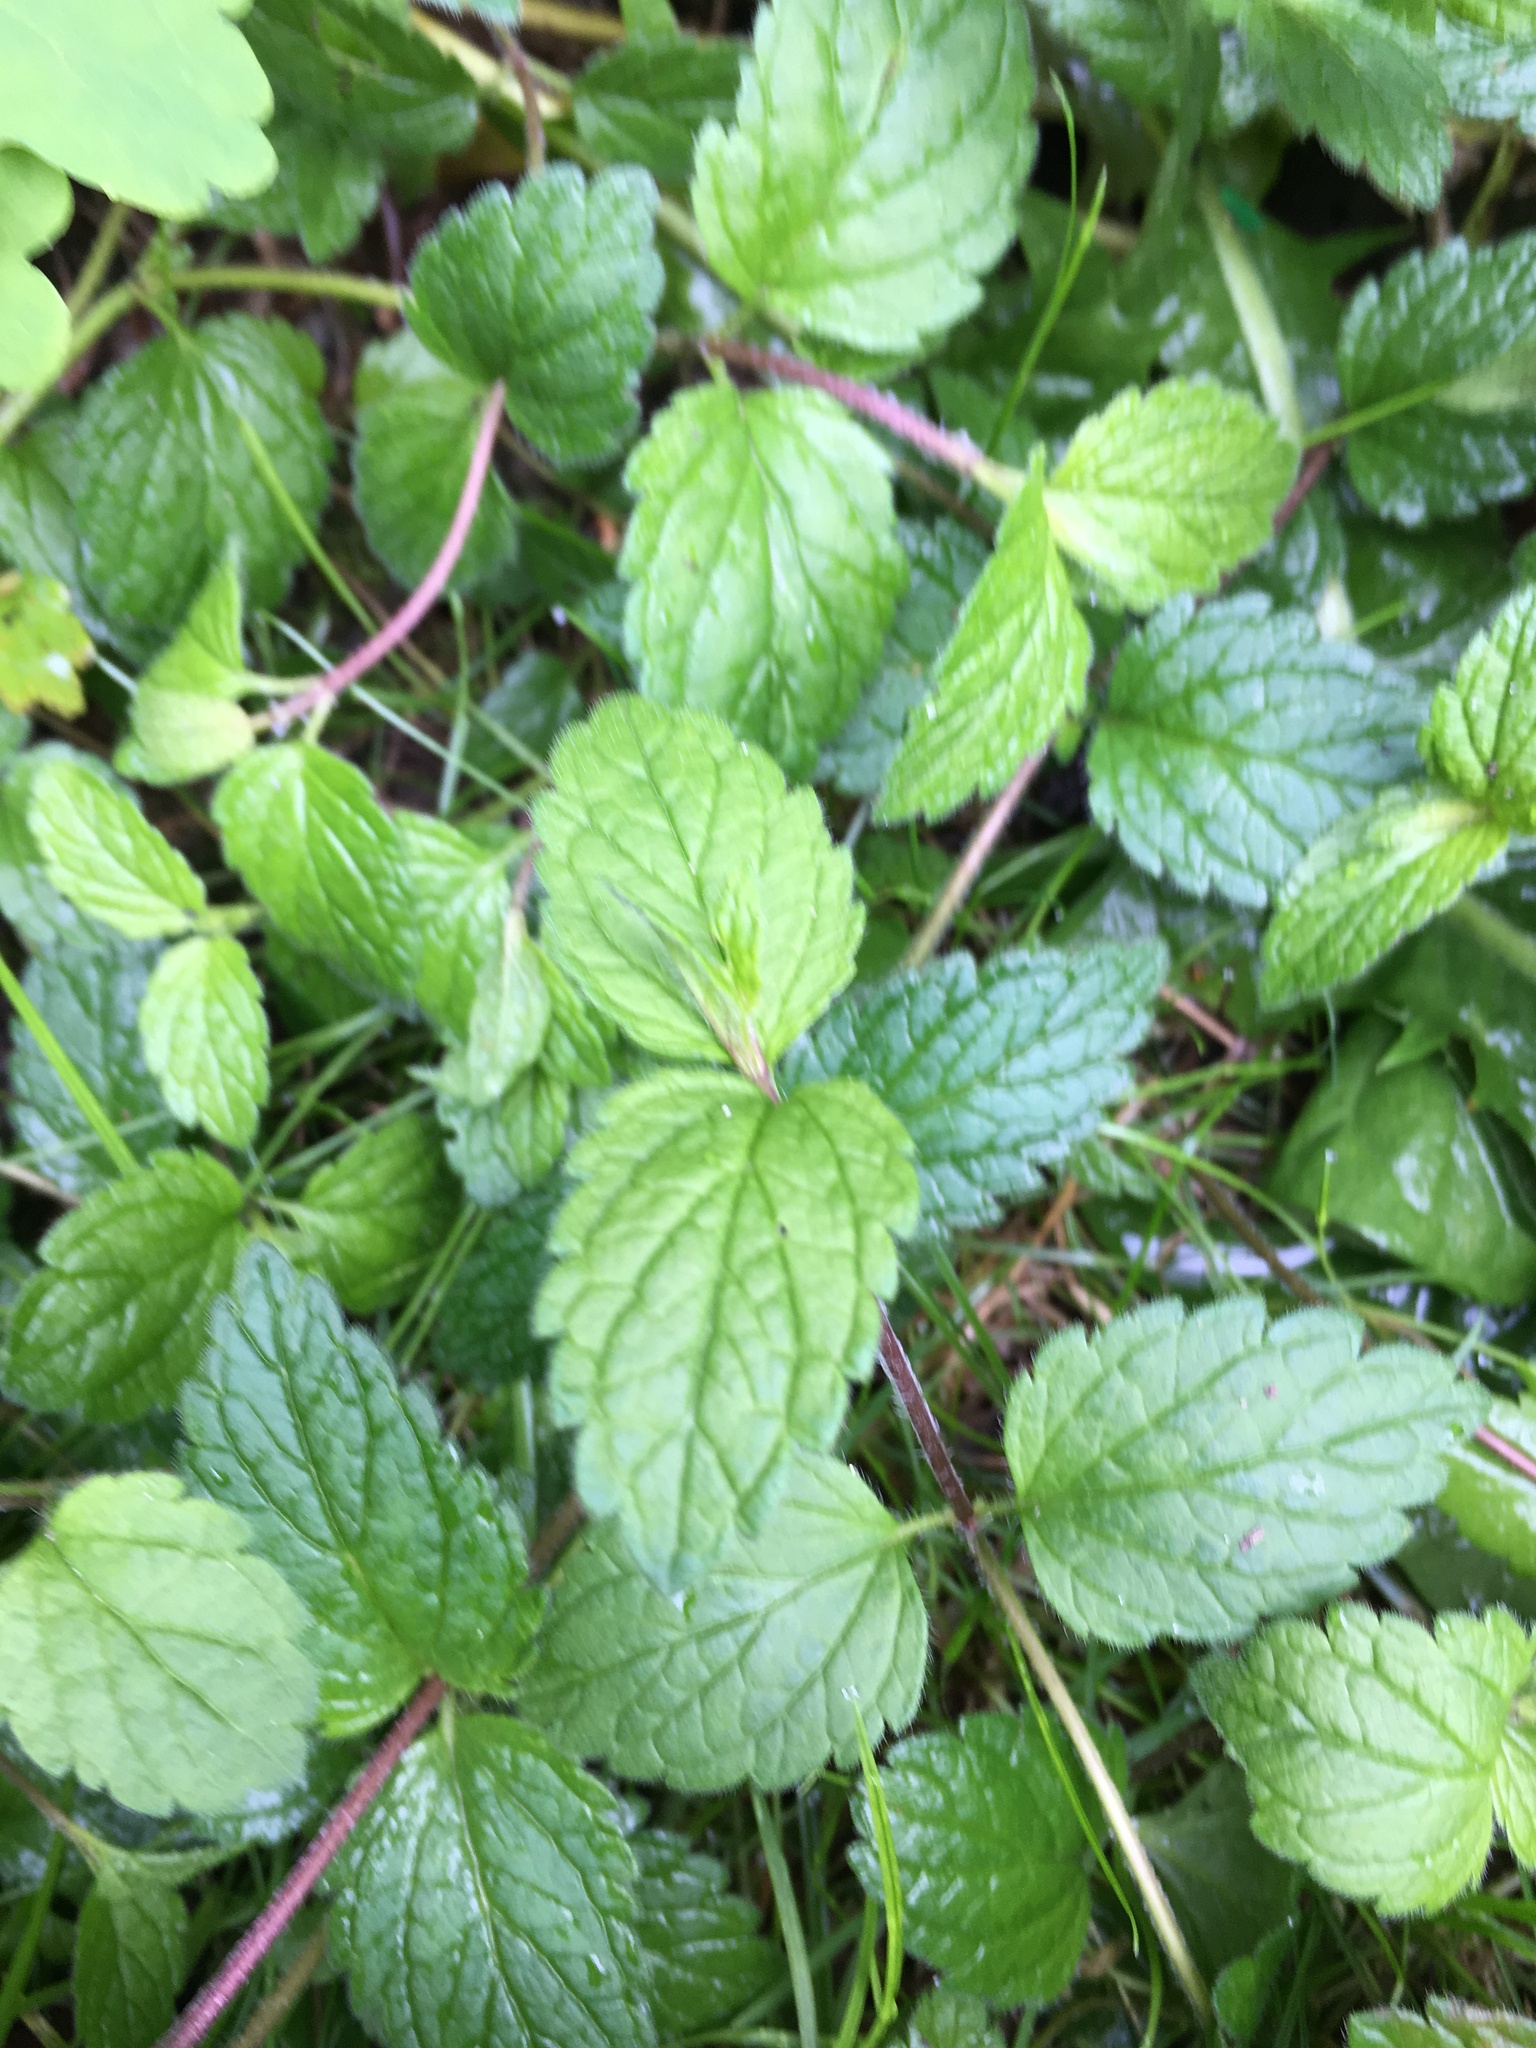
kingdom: Plantae
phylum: Tracheophyta
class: Magnoliopsida
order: Lamiales
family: Plantaginaceae
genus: Veronica
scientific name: Veronica chamaedrys
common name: Germander speedwell
